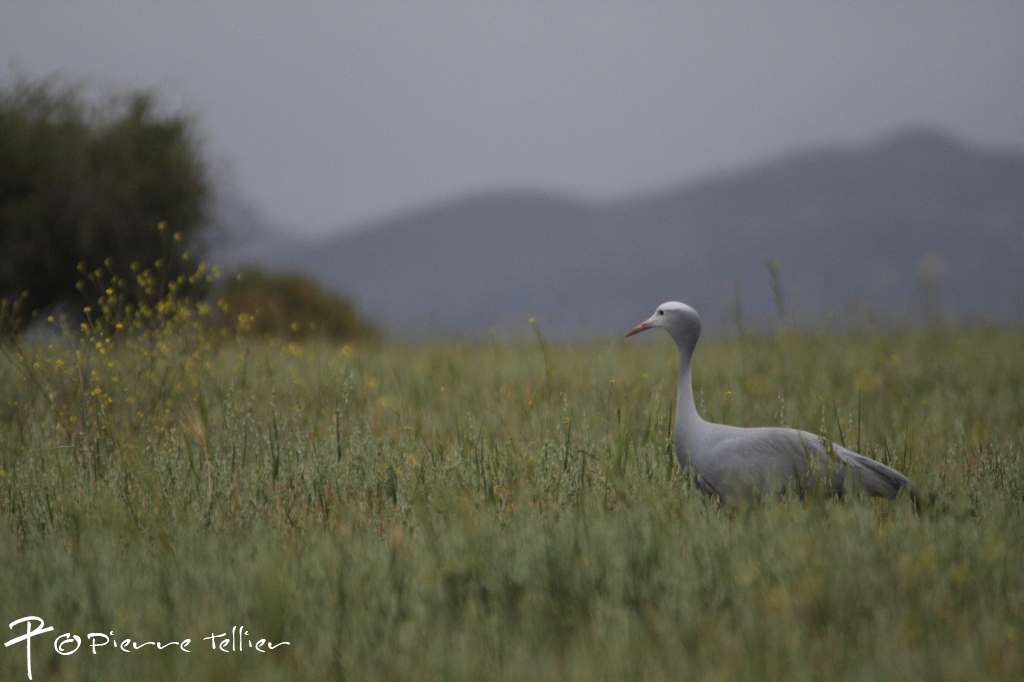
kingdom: Animalia
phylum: Chordata
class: Aves
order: Gruiformes
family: Gruidae
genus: Anthropoides
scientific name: Anthropoides paradiseus
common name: Blue crane
